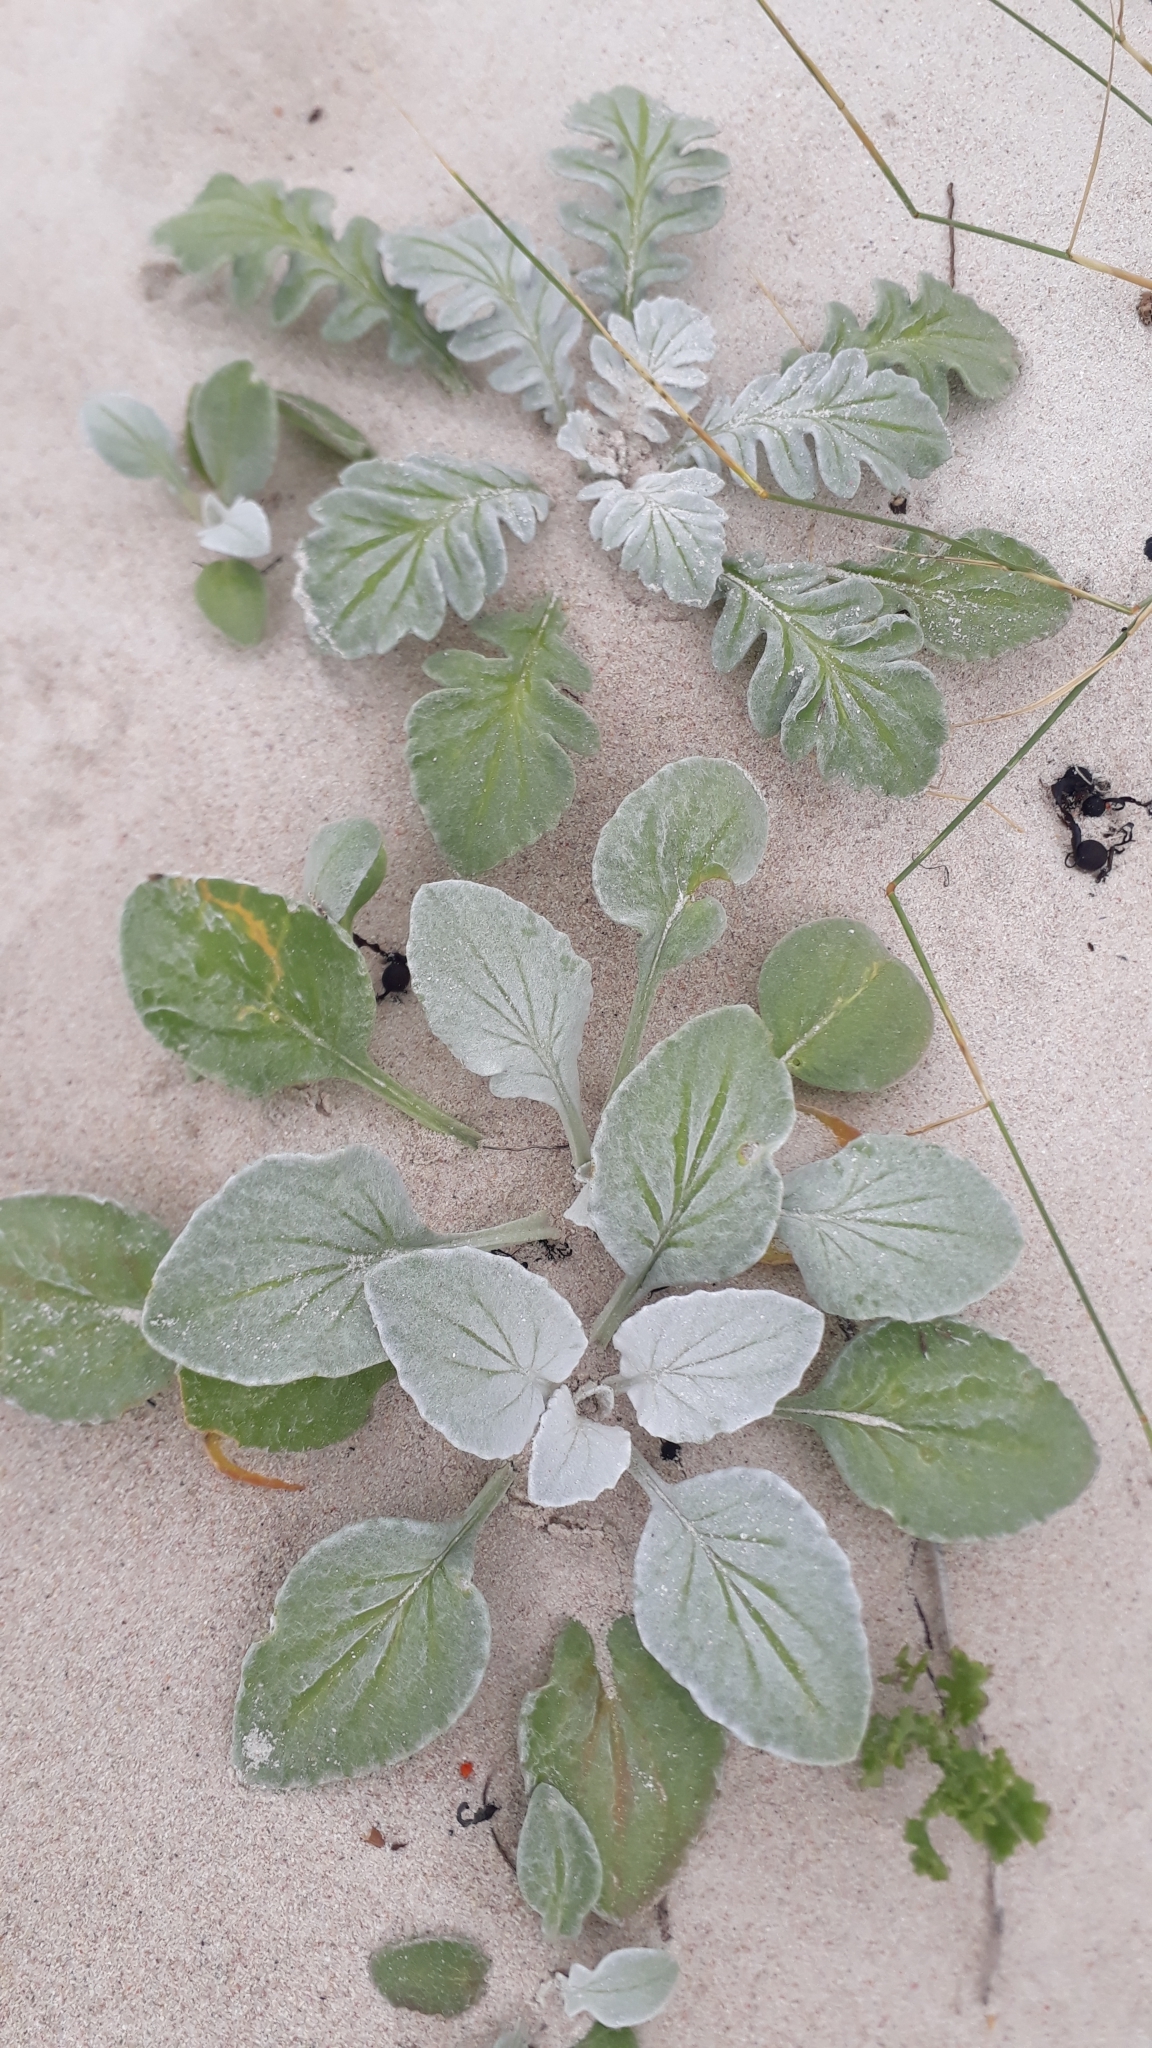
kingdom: Plantae
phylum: Tracheophyta
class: Magnoliopsida
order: Asterales
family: Asteraceae
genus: Arctotheca
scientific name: Arctotheca populifolia
